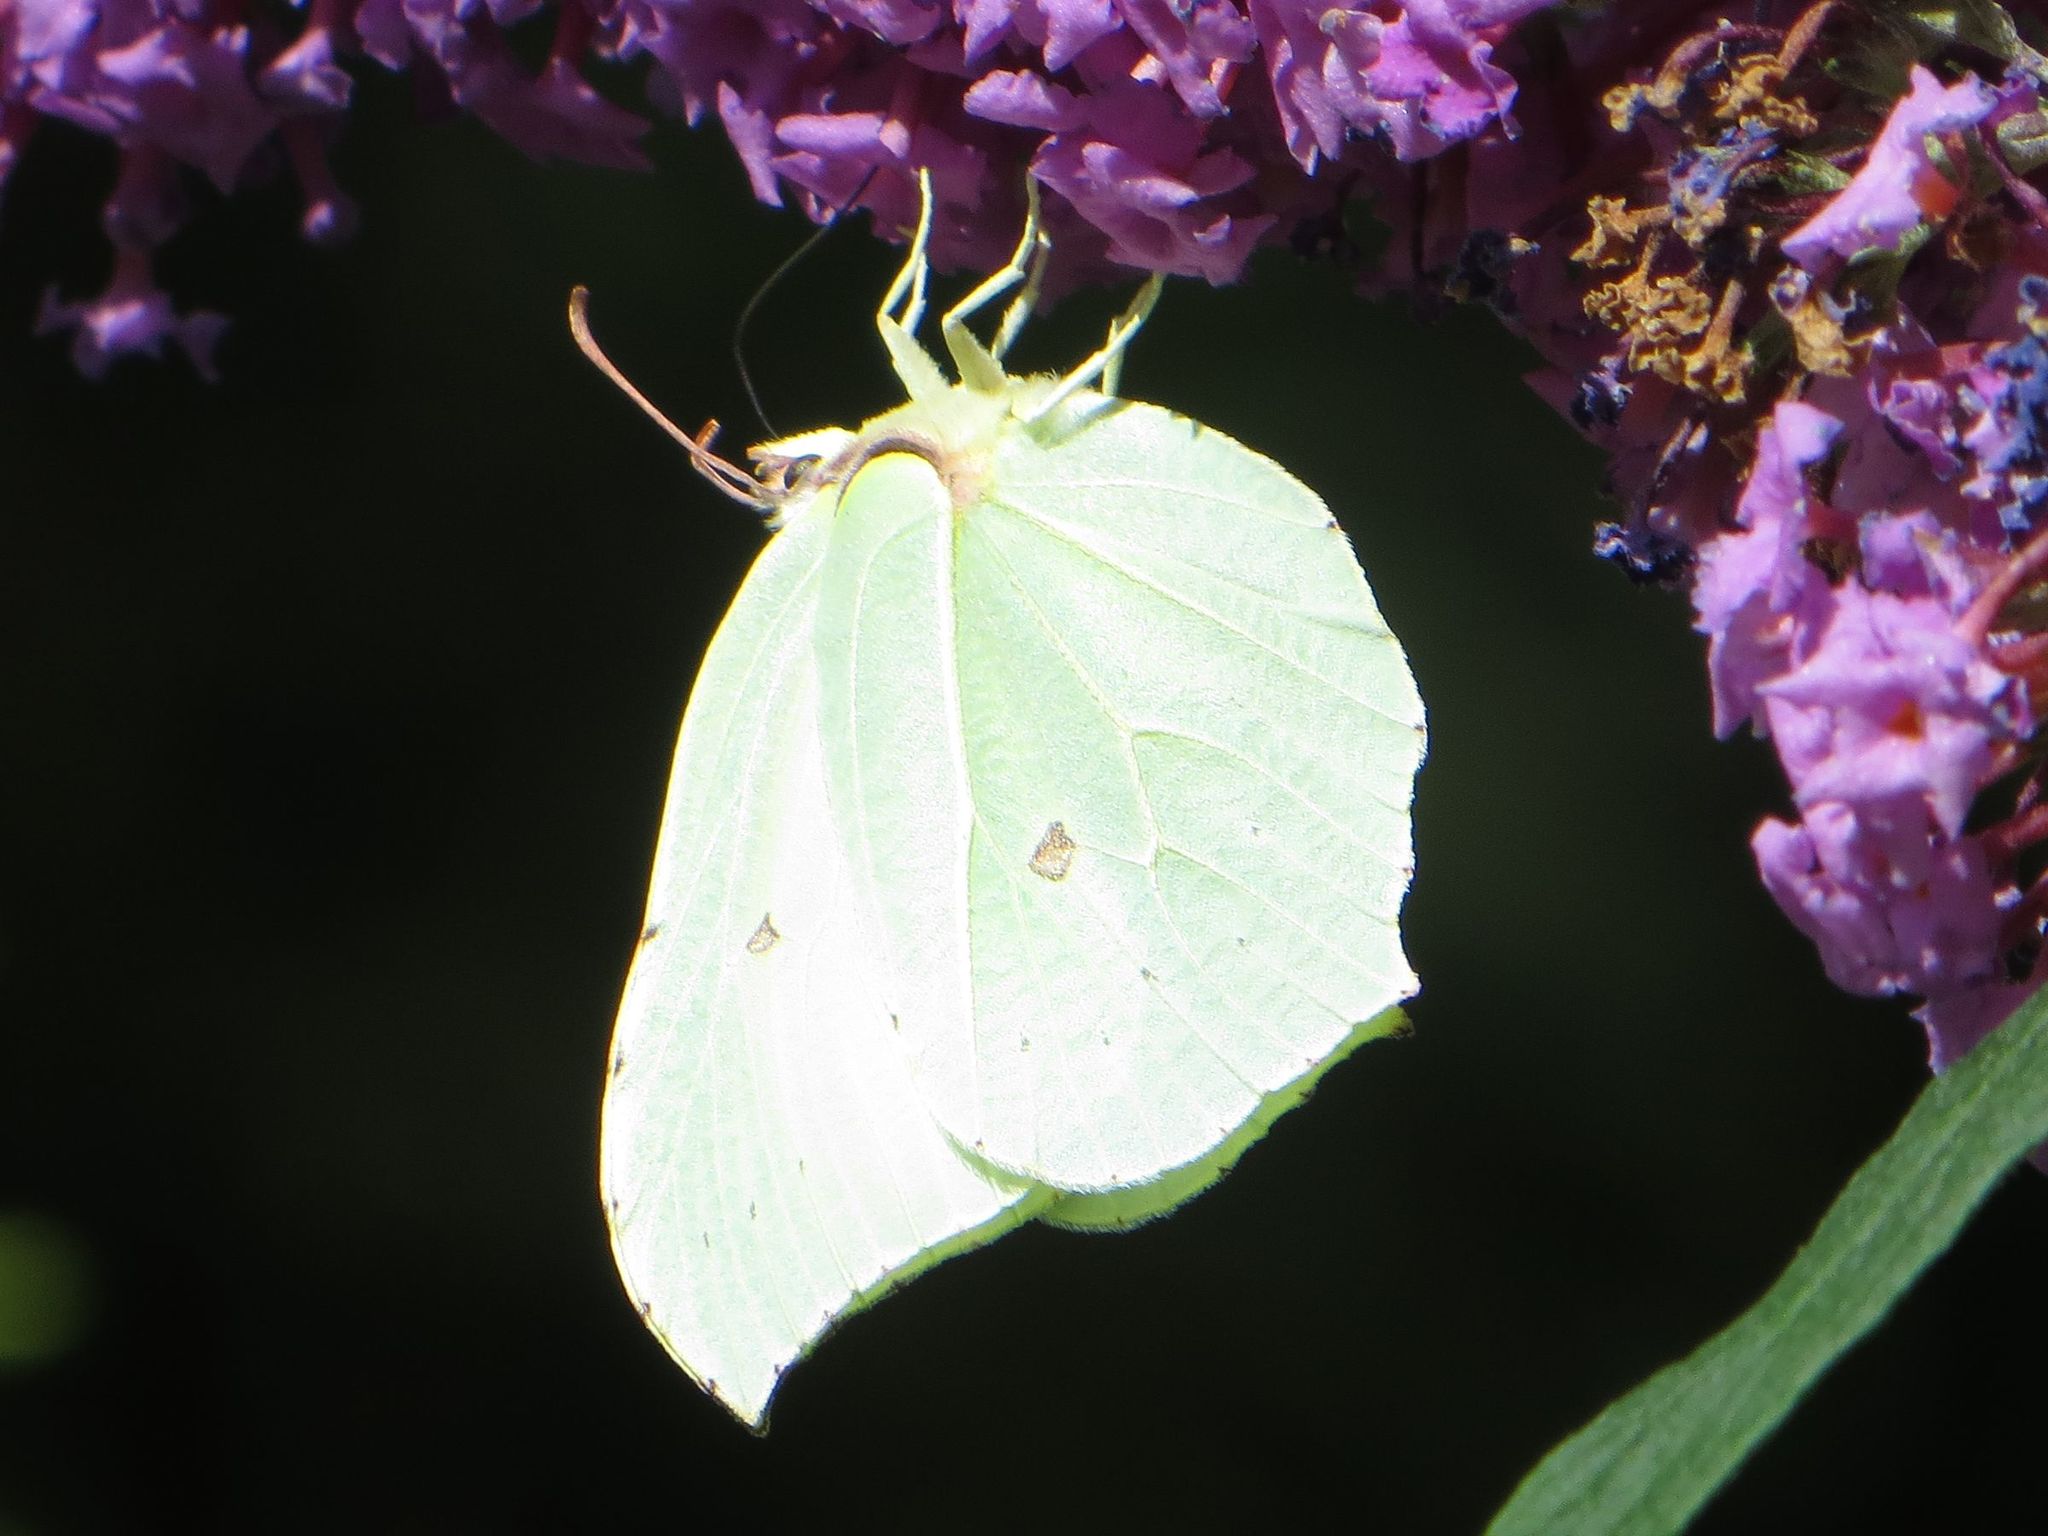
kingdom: Animalia
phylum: Arthropoda
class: Insecta
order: Lepidoptera
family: Pieridae
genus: Gonepteryx
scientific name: Gonepteryx rhamni
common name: Brimstone
